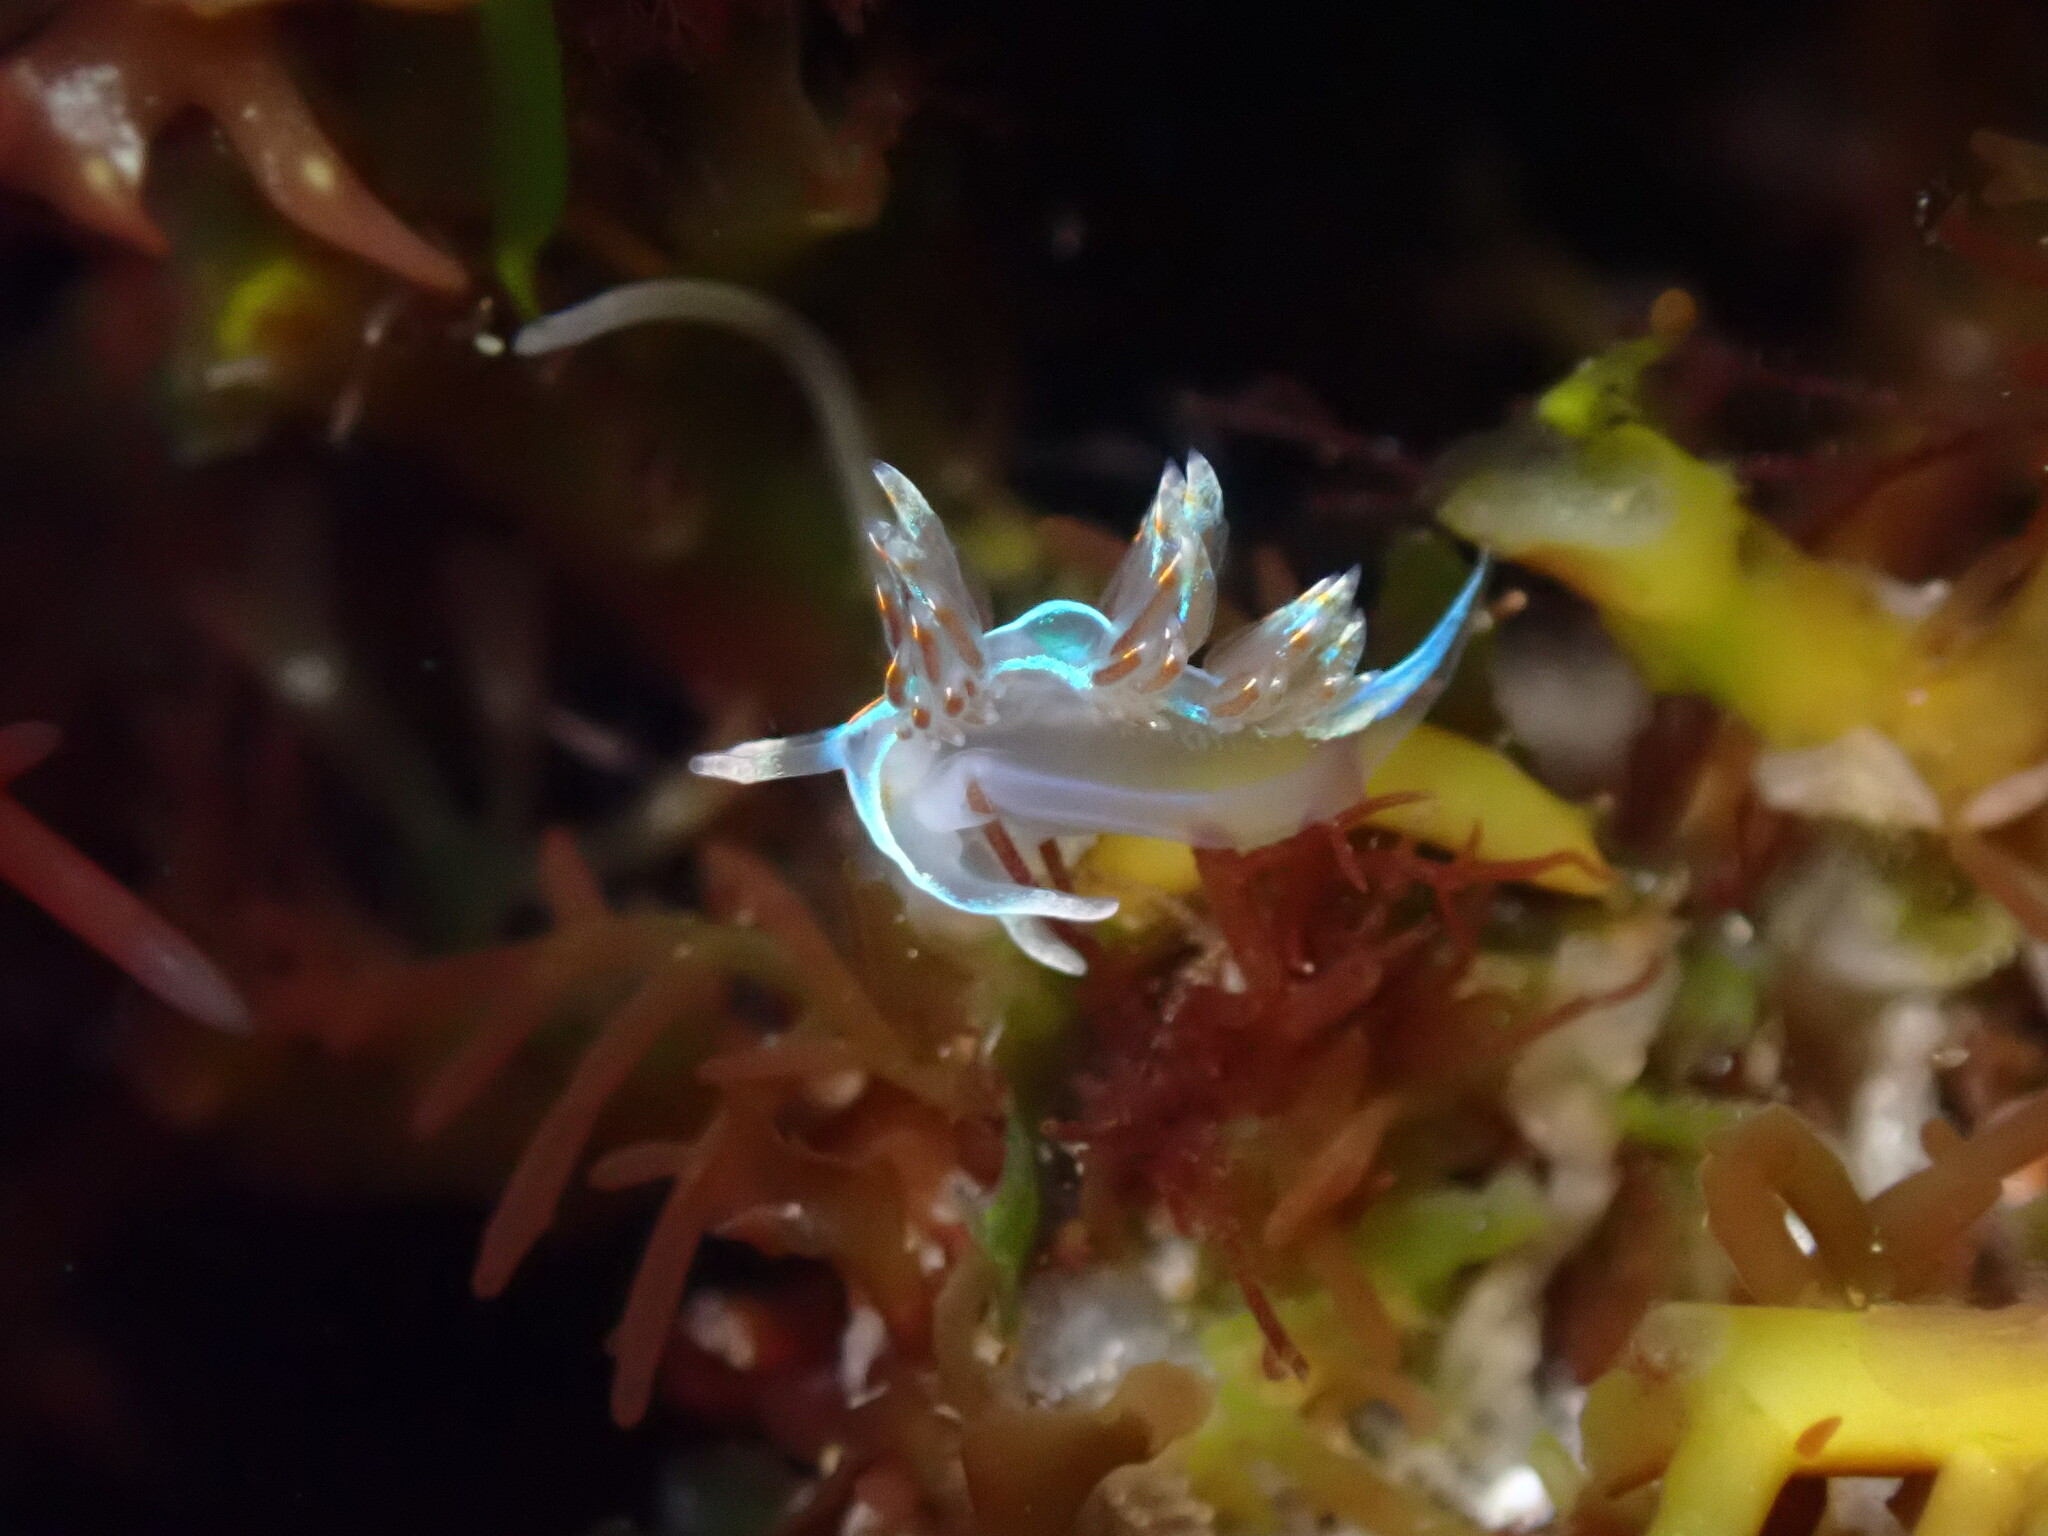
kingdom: Animalia
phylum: Mollusca
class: Gastropoda
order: Nudibranchia
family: Myrrhinidae
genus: Hermissenda
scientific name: Hermissenda opalescens
